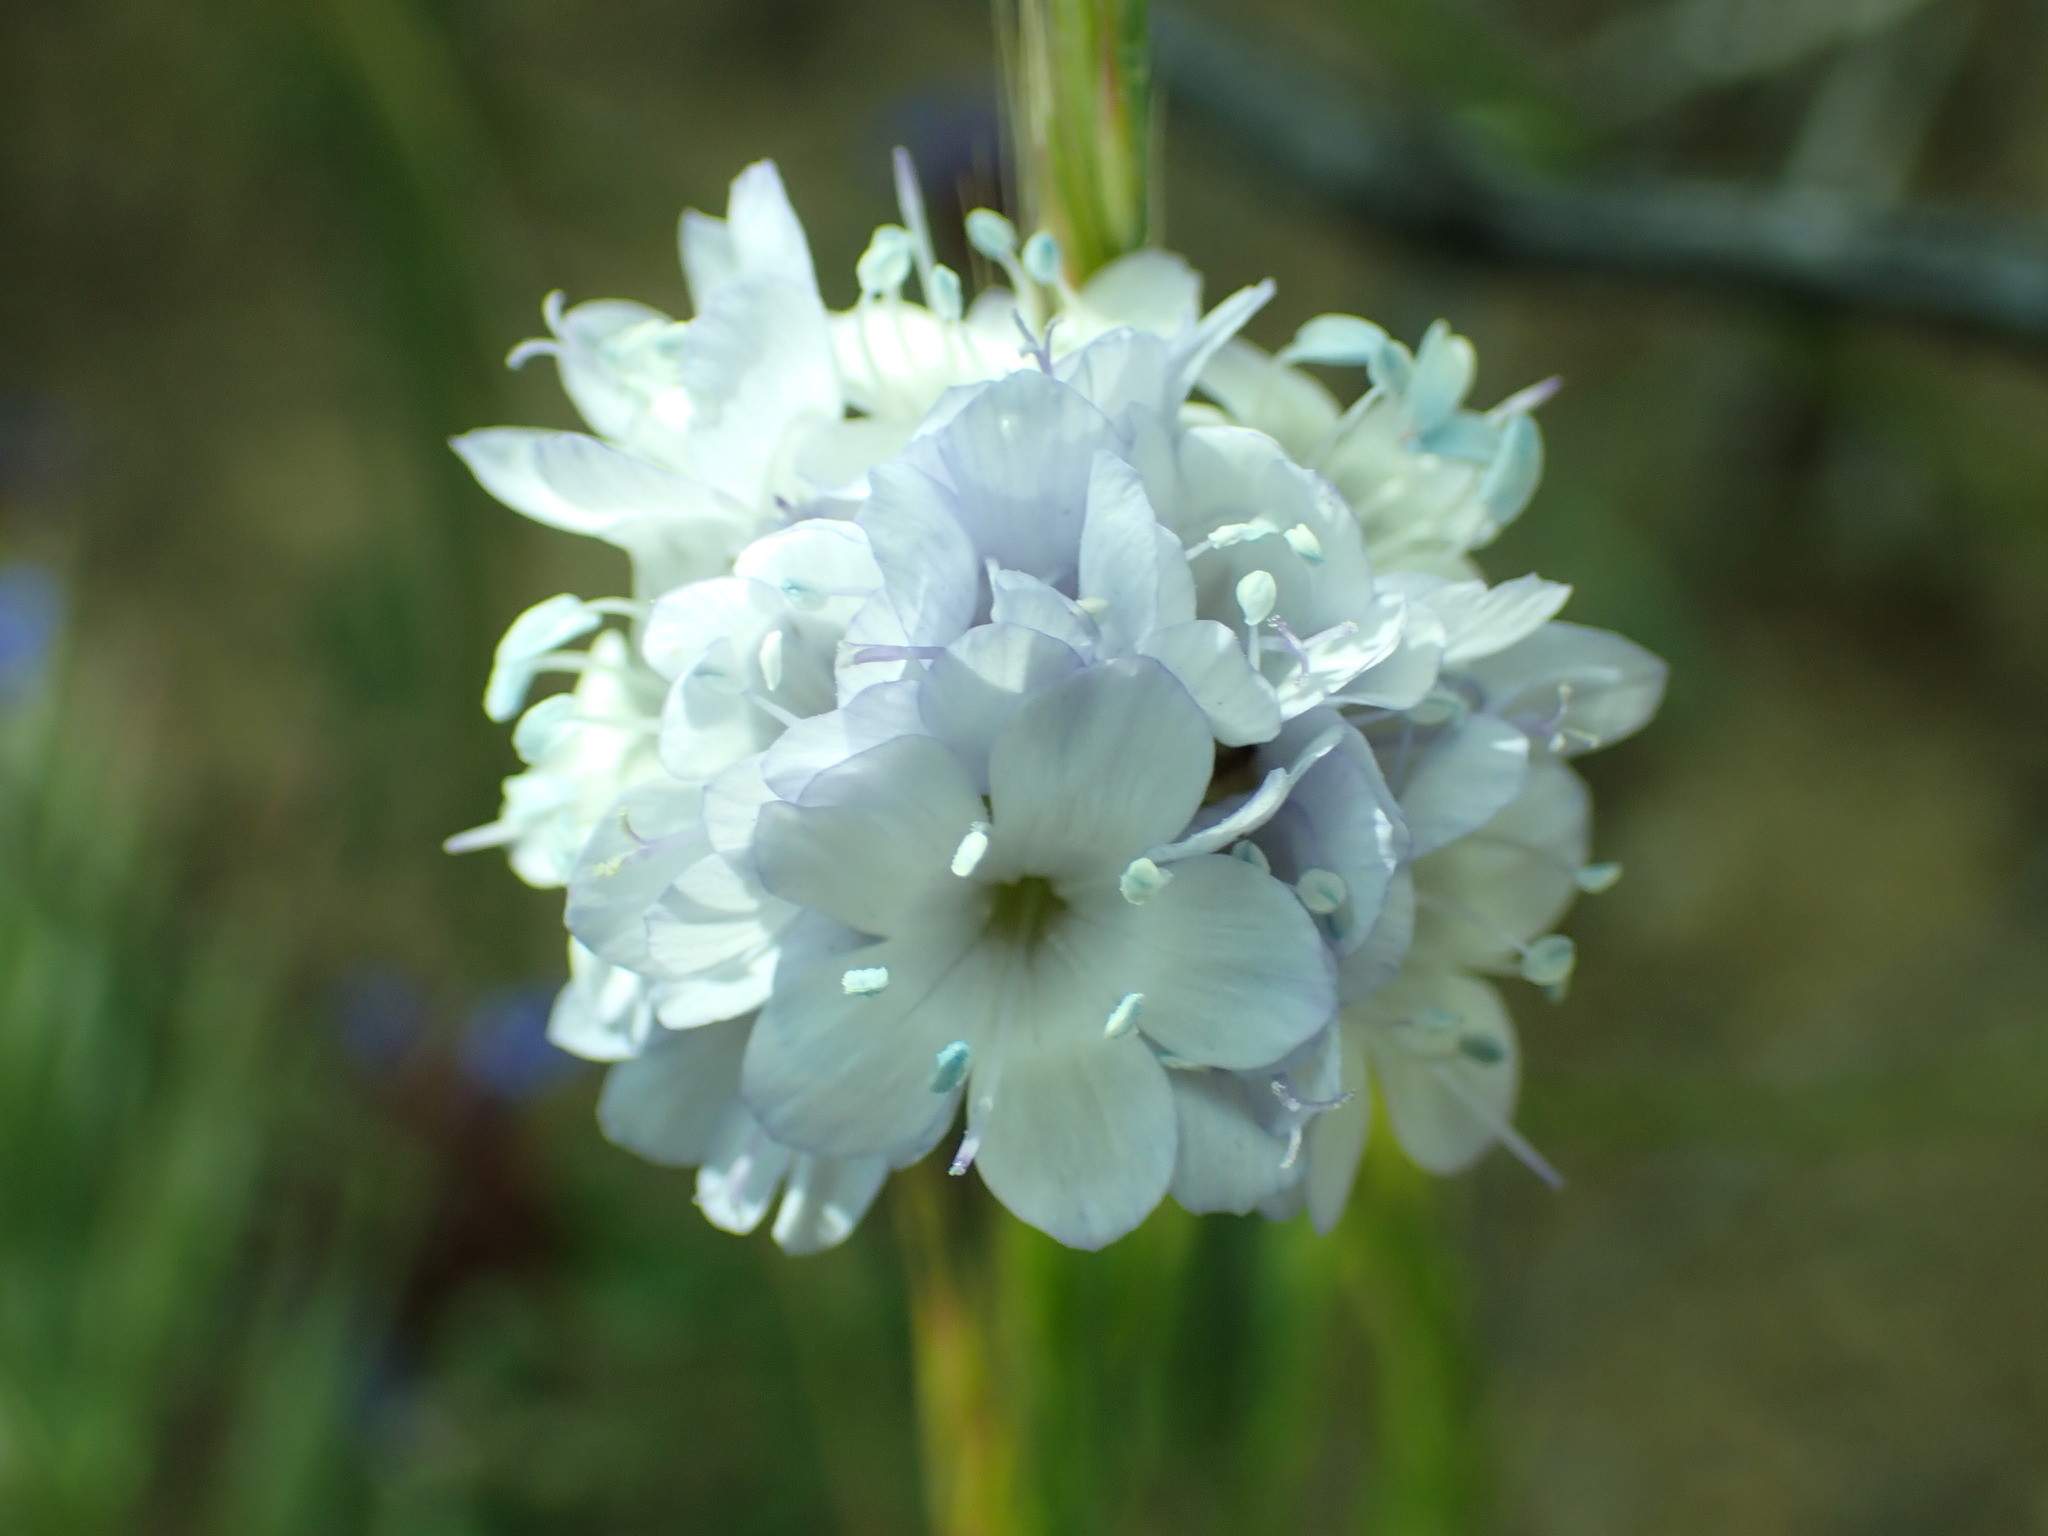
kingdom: Plantae
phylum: Tracheophyta
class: Magnoliopsida
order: Ericales
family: Polemoniaceae
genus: Gilia
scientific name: Gilia capitata
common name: Bluehead gilia
